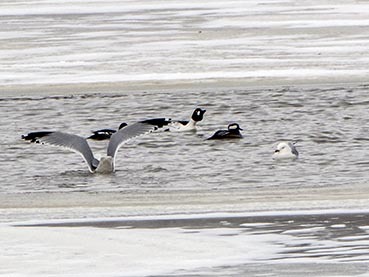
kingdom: Animalia
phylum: Chordata
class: Aves
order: Anseriformes
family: Anatidae
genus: Lophodytes
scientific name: Lophodytes cucullatus
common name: Hooded merganser
